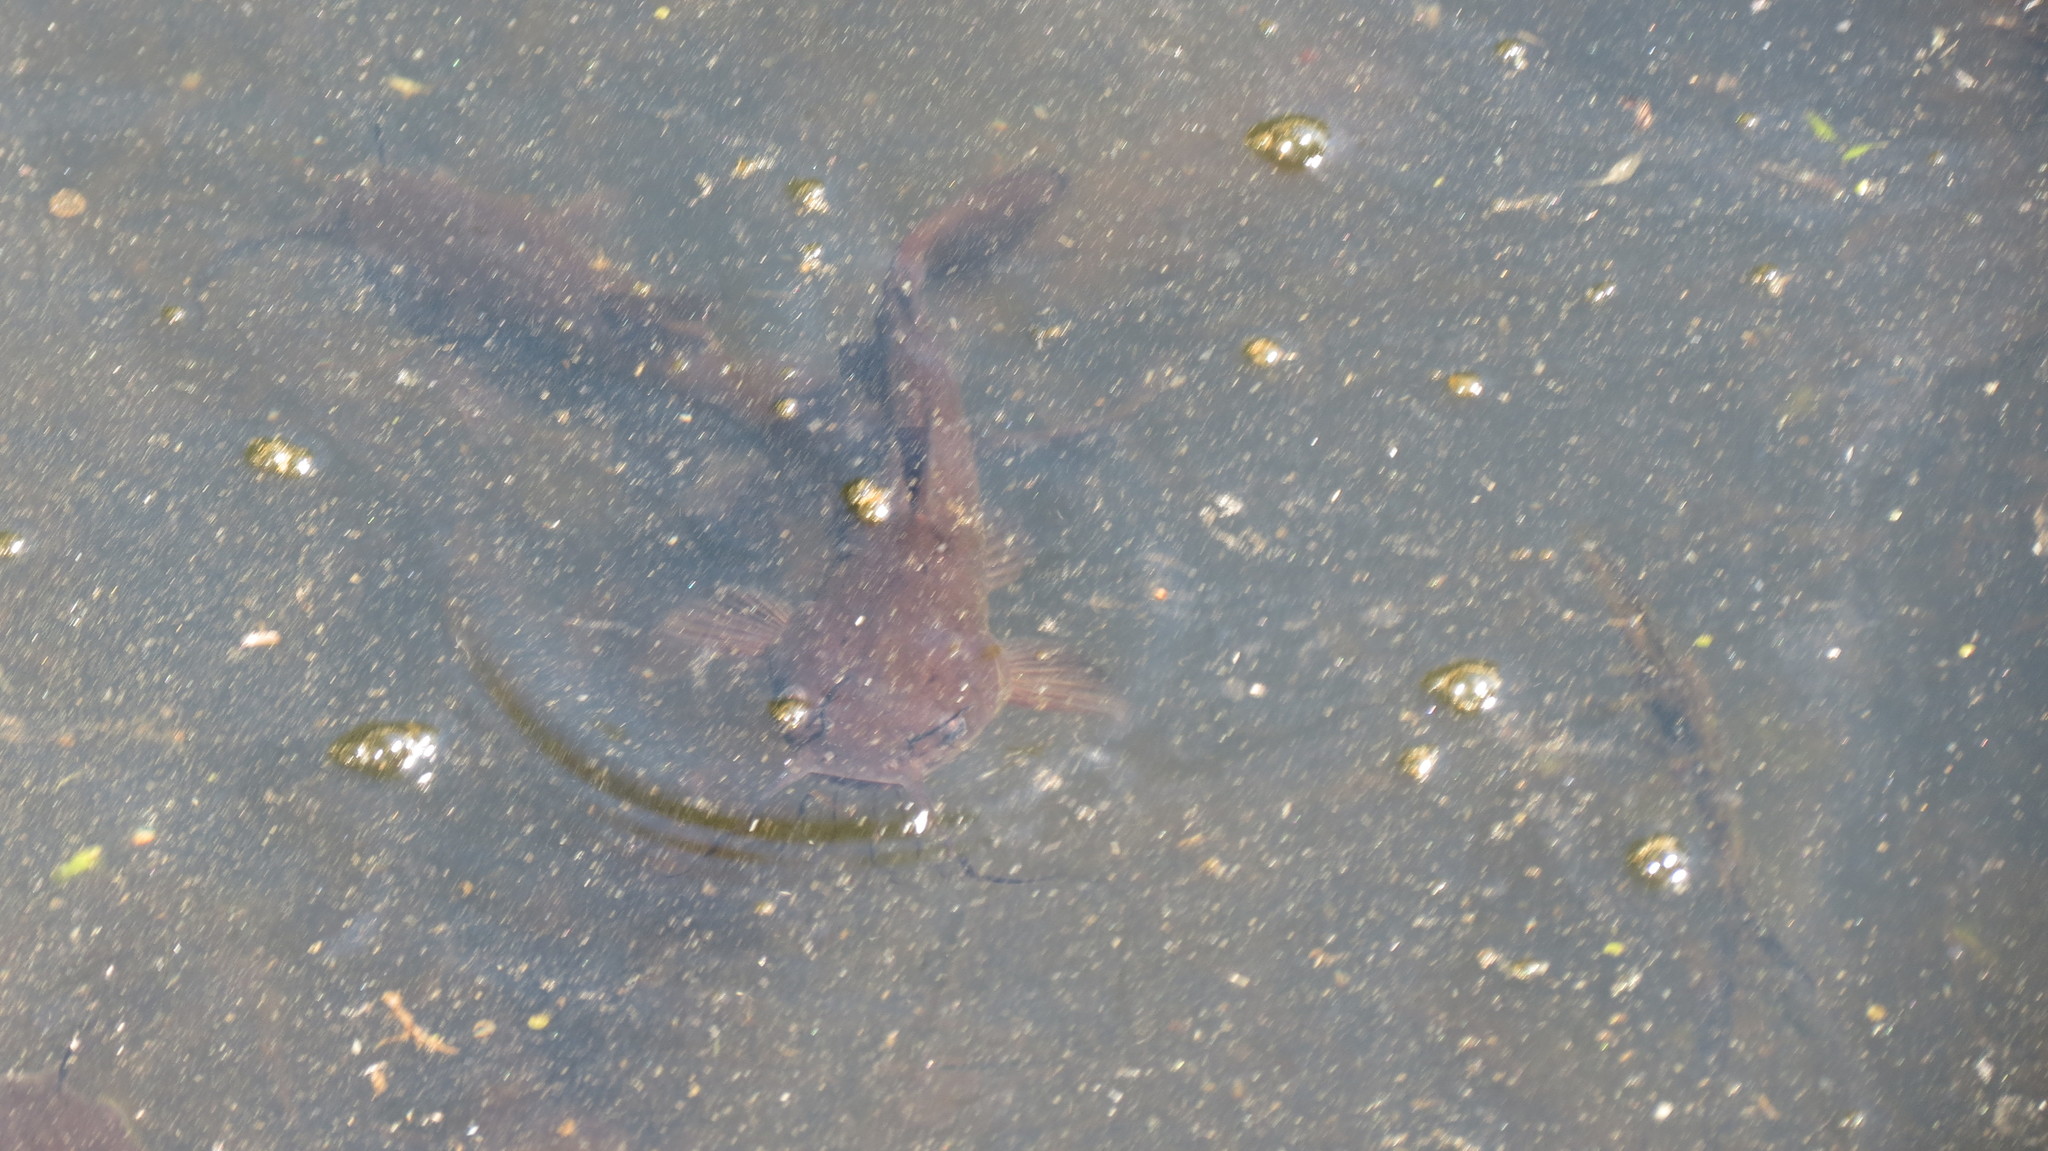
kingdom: Animalia
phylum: Chordata
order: Siluriformes
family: Ictaluridae
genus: Ameiurus
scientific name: Ameiurus nebulosus
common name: Brown bullhead
